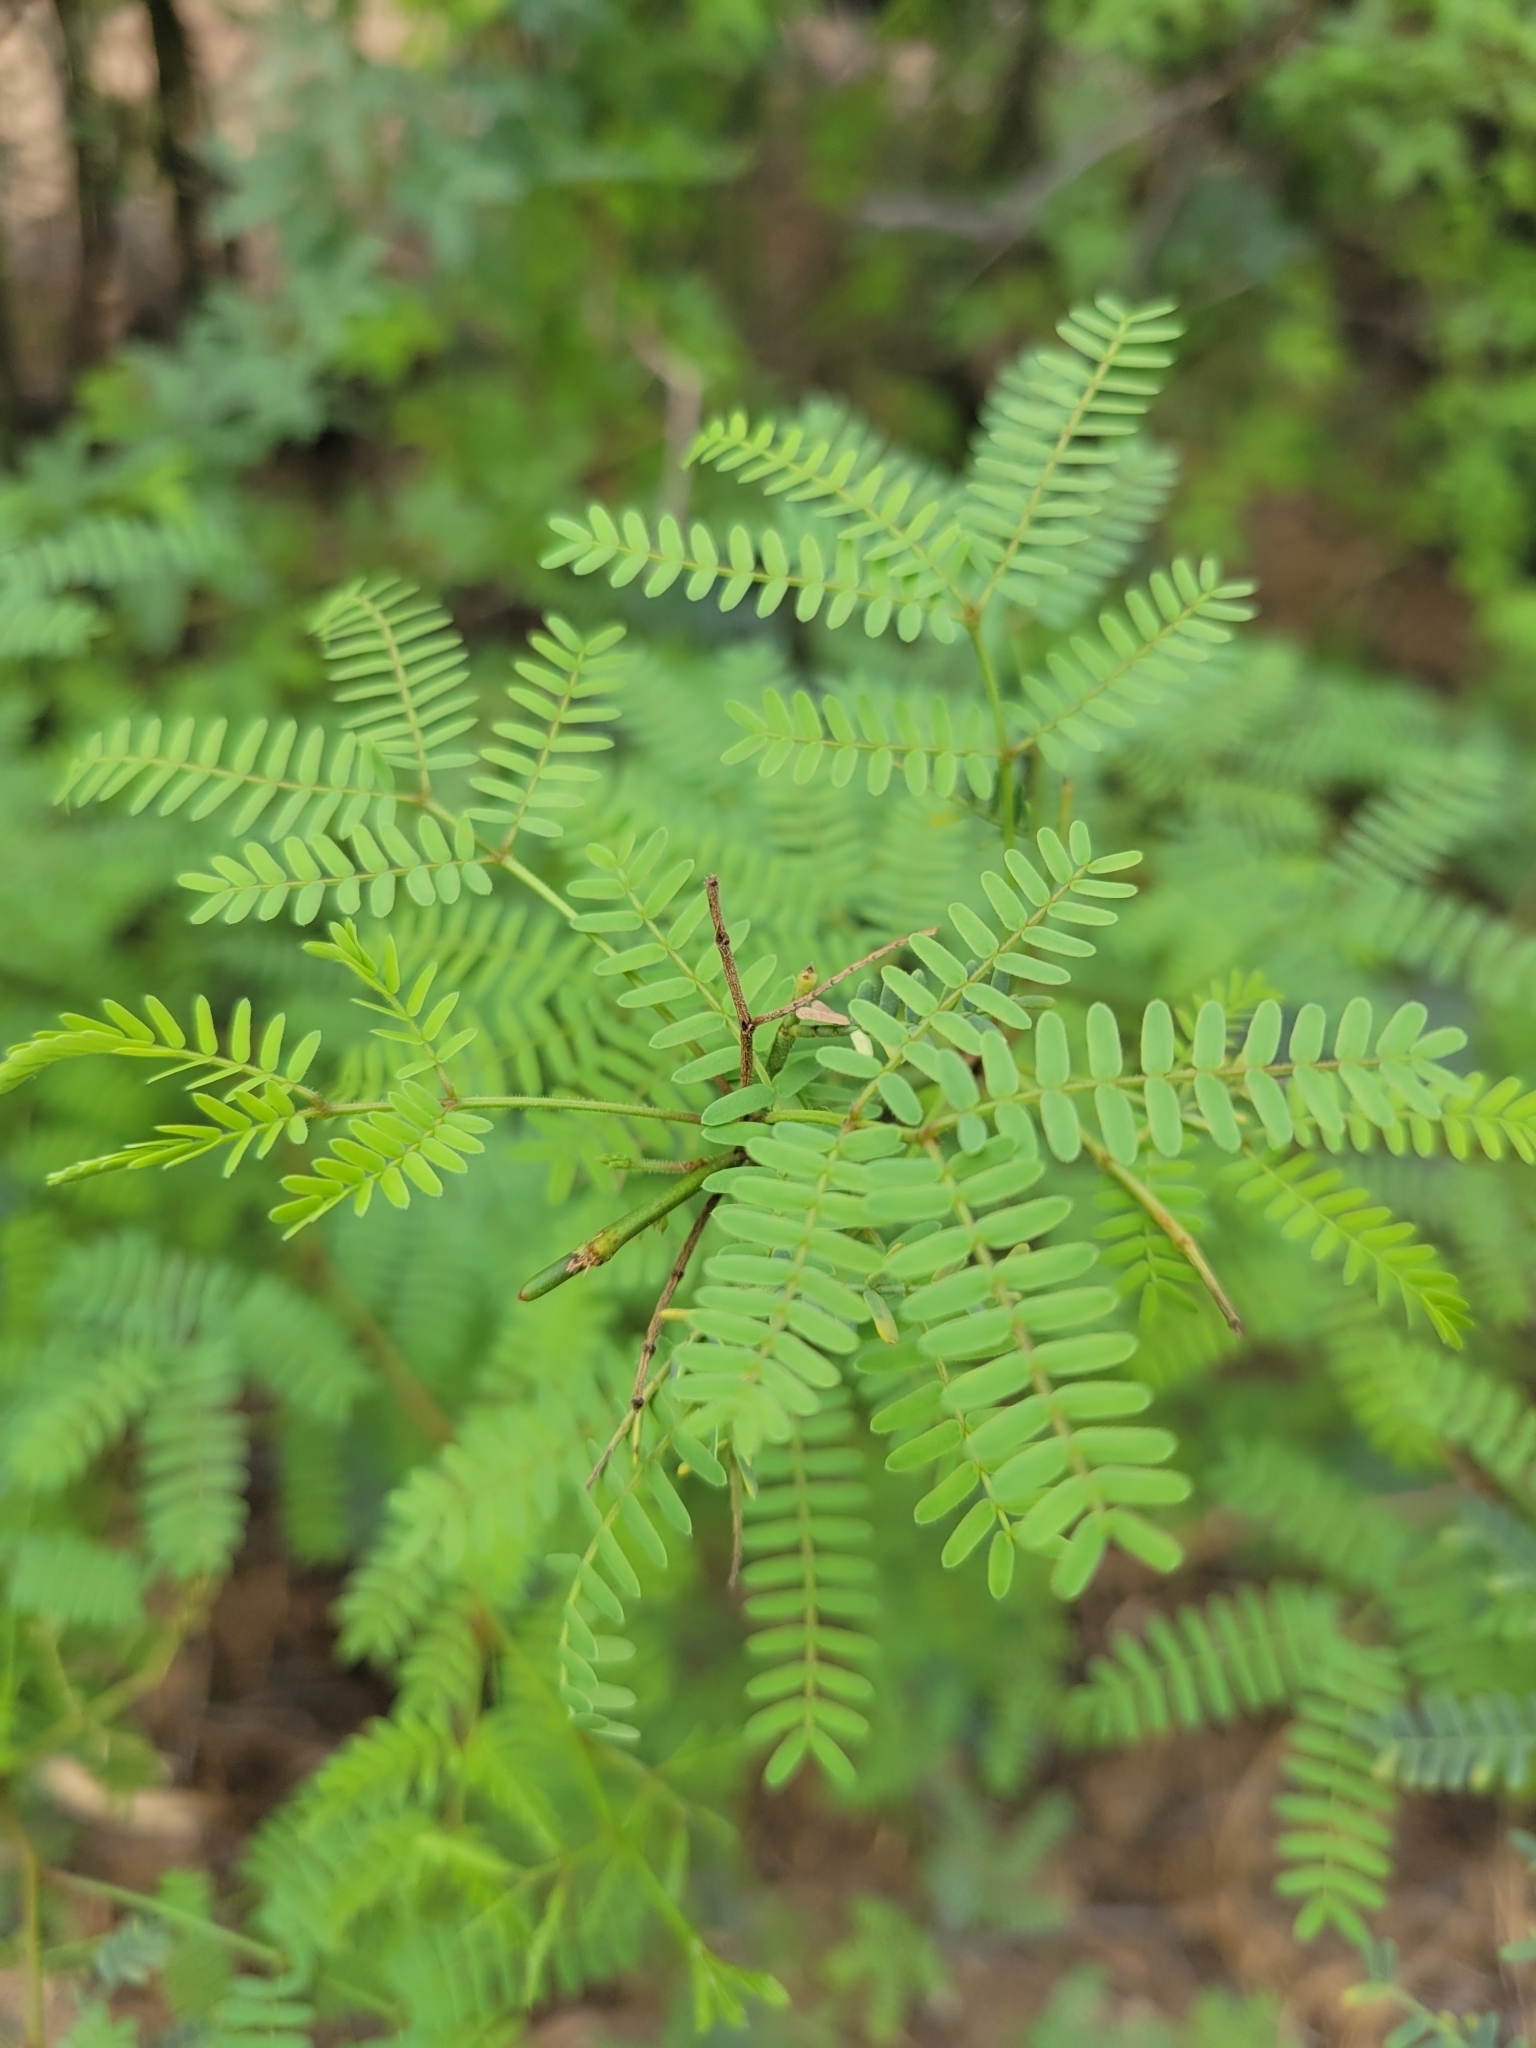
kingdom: Plantae
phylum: Tracheophyta
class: Magnoliopsida
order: Fabales
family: Fabaceae
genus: Prosopis
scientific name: Prosopis pallida
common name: Mesquite
